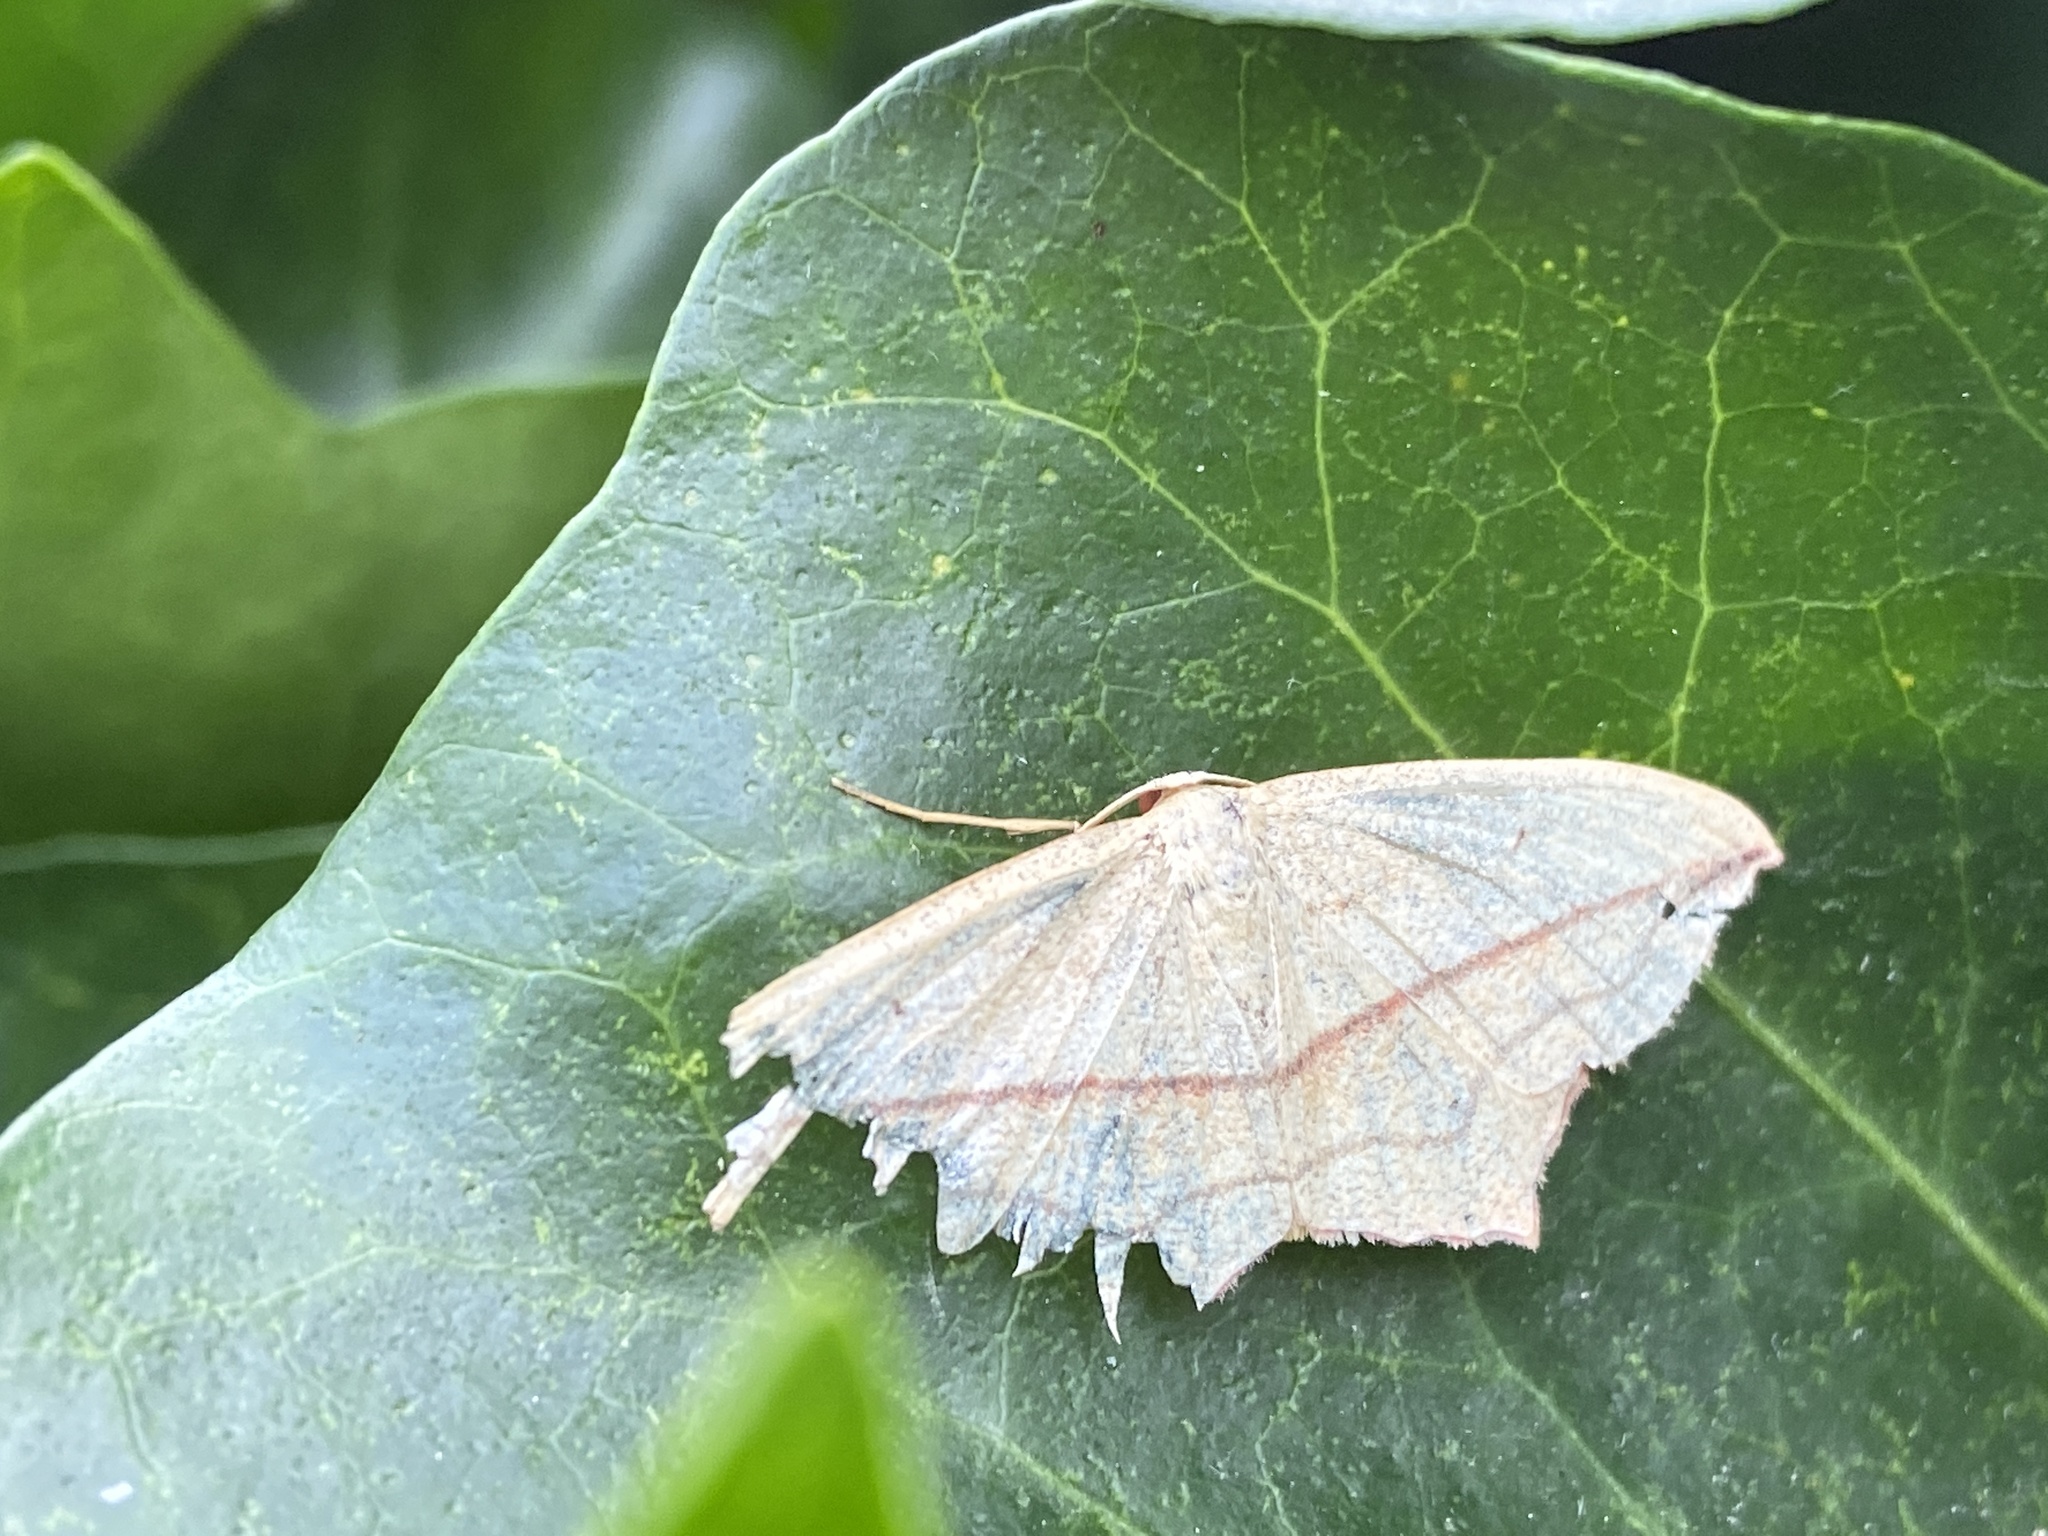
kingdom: Animalia
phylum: Arthropoda
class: Insecta
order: Lepidoptera
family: Geometridae
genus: Timandra
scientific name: Timandra comae
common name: Blood-vein
